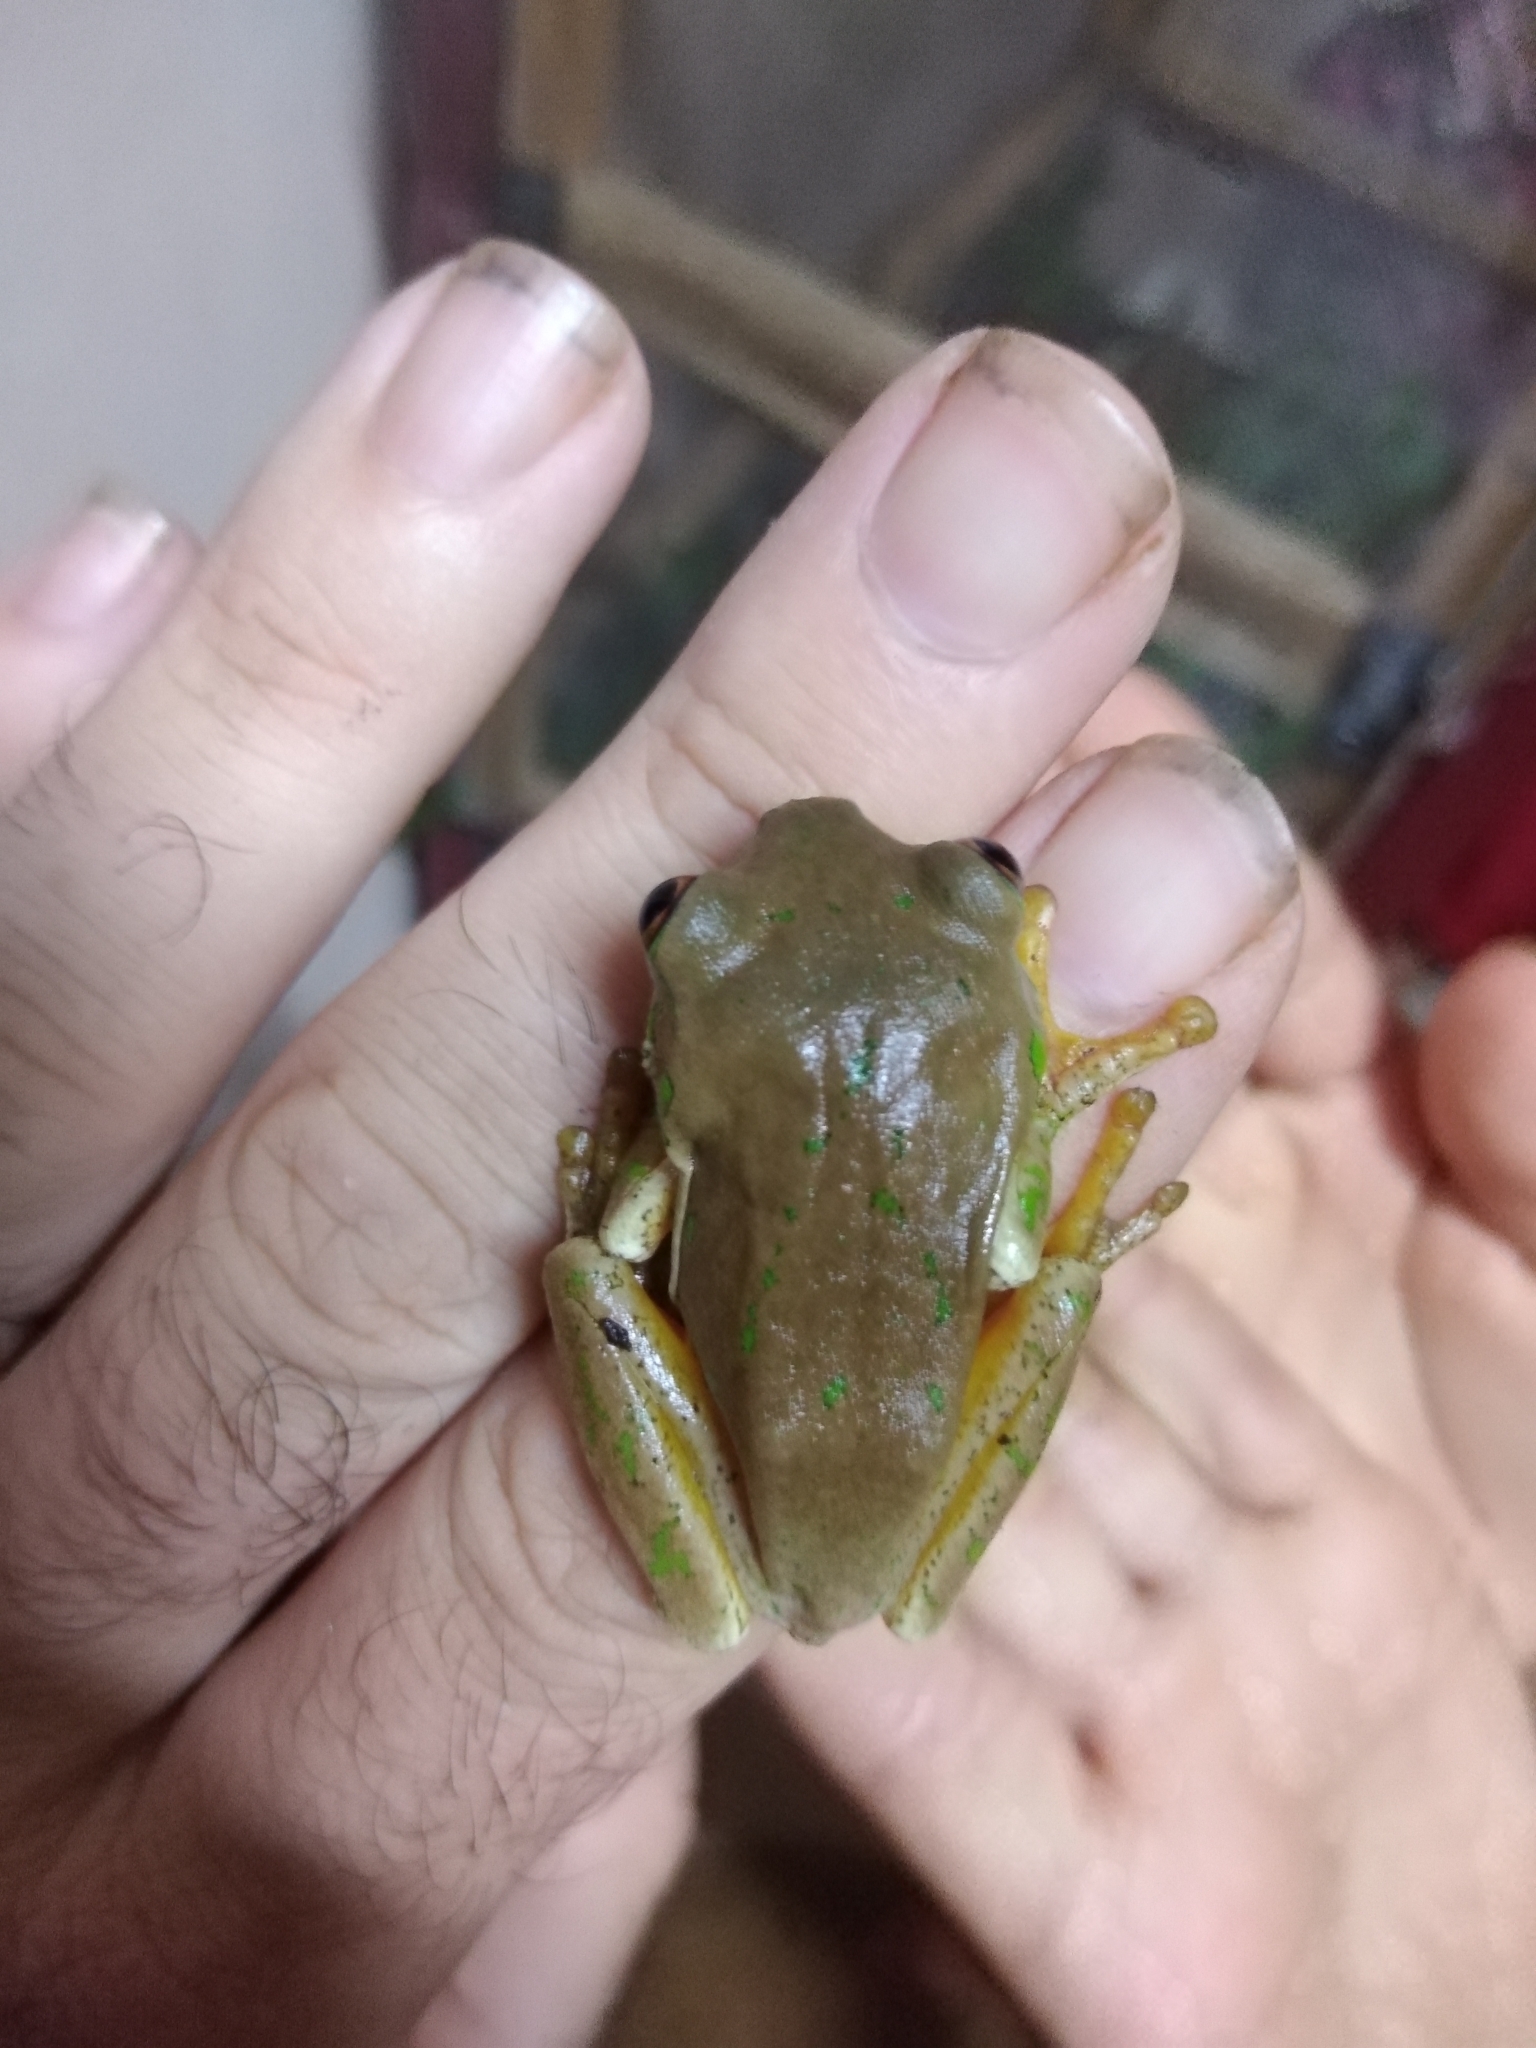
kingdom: Animalia
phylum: Chordata
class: Amphibia
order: Anura
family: Arthroleptidae
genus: Leptopelis
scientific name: Leptopelis natalensis
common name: Natal tree frog
